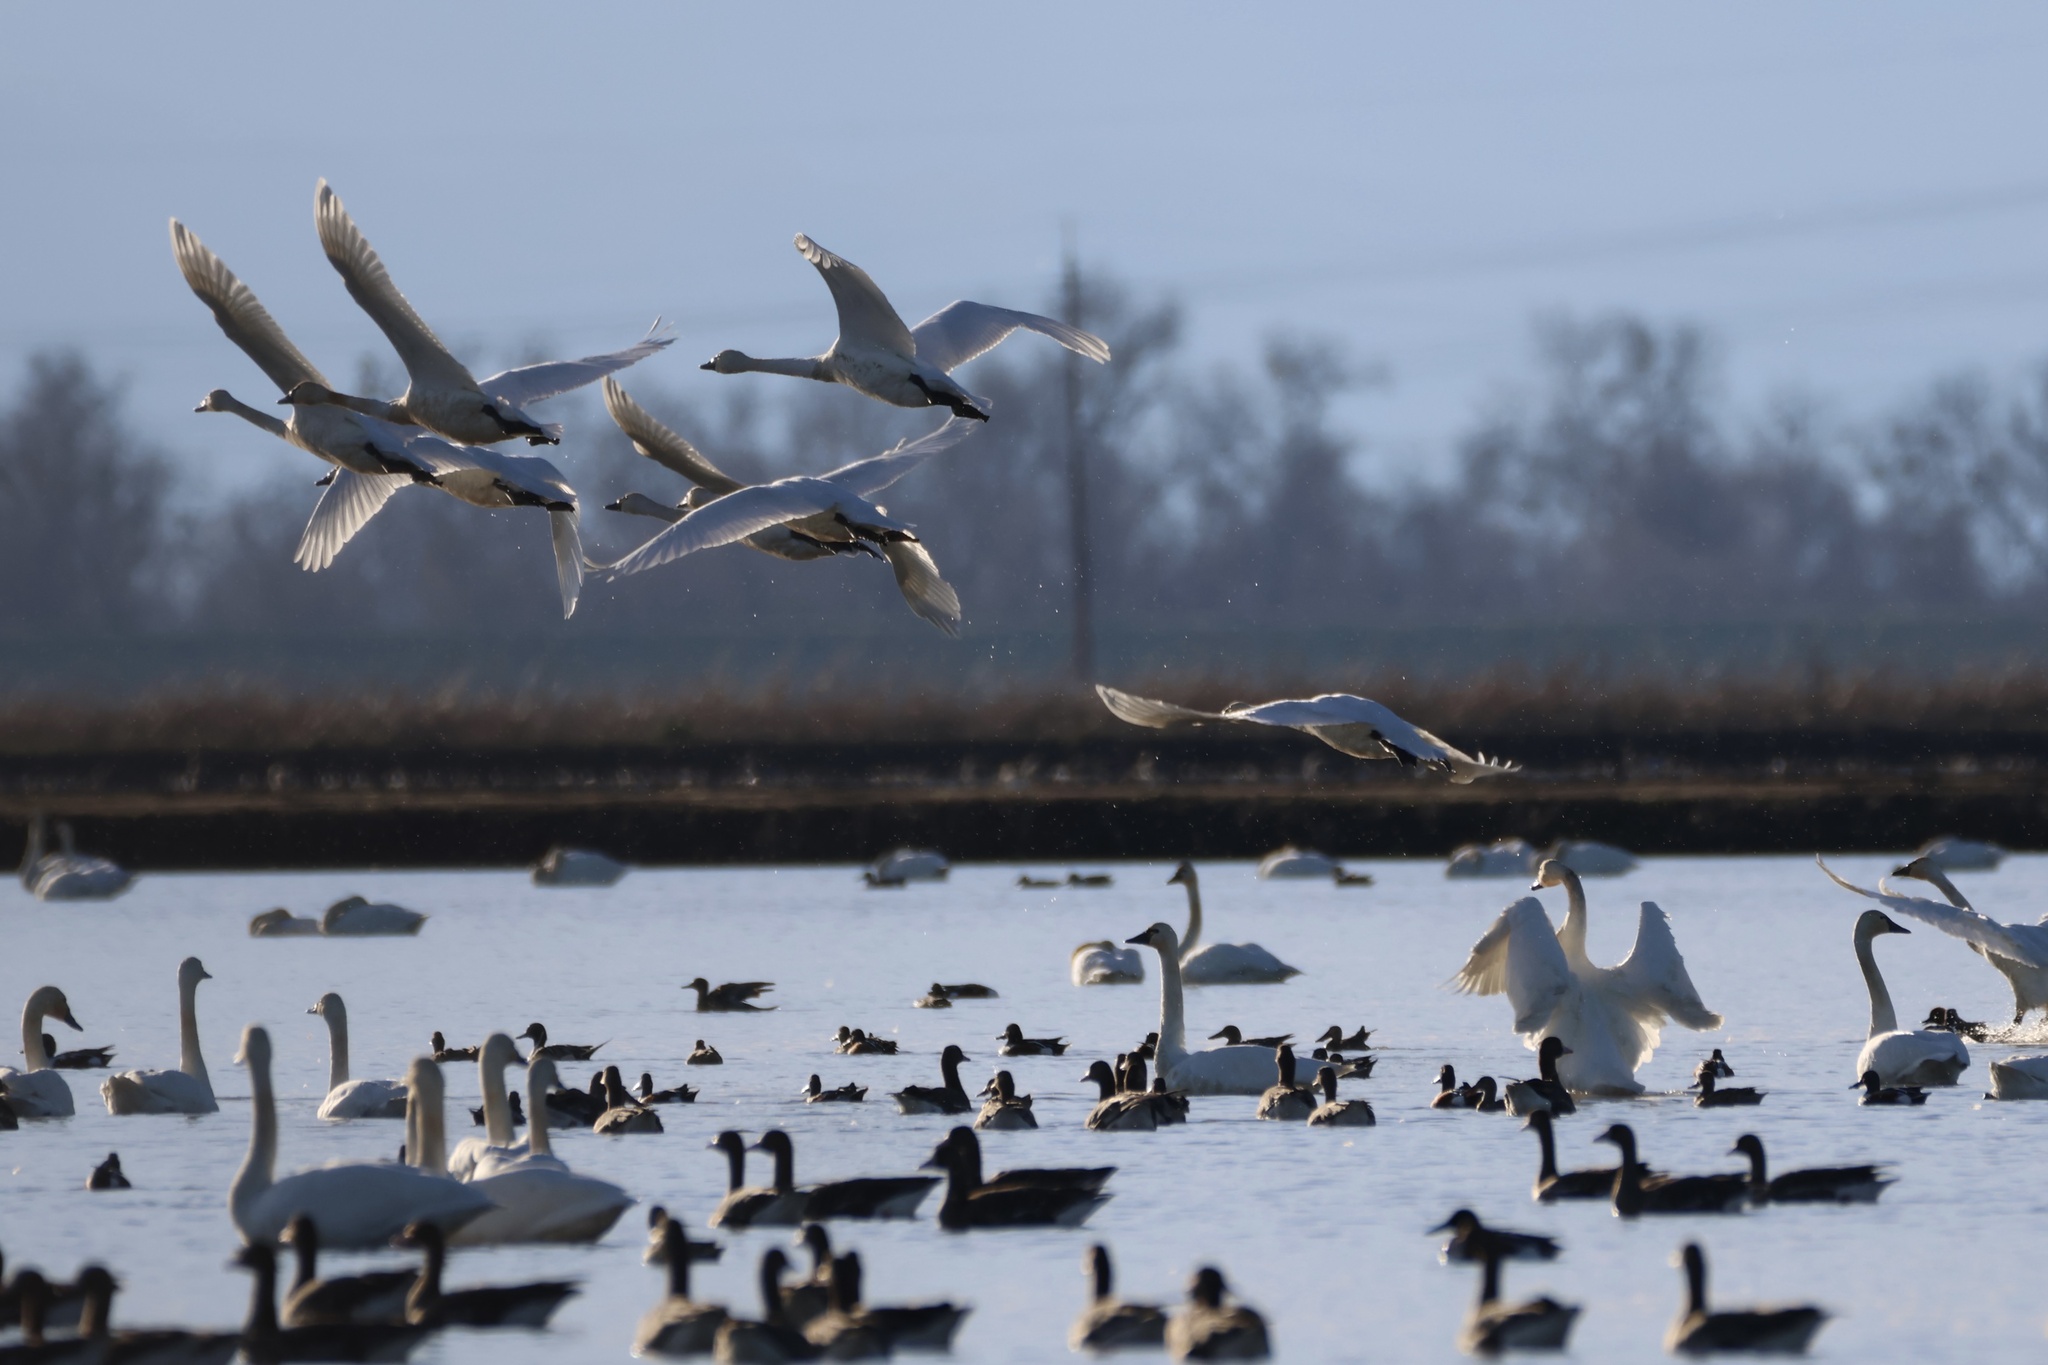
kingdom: Animalia
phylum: Chordata
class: Aves
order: Anseriformes
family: Anatidae
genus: Cygnus
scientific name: Cygnus columbianus
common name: Tundra swan
